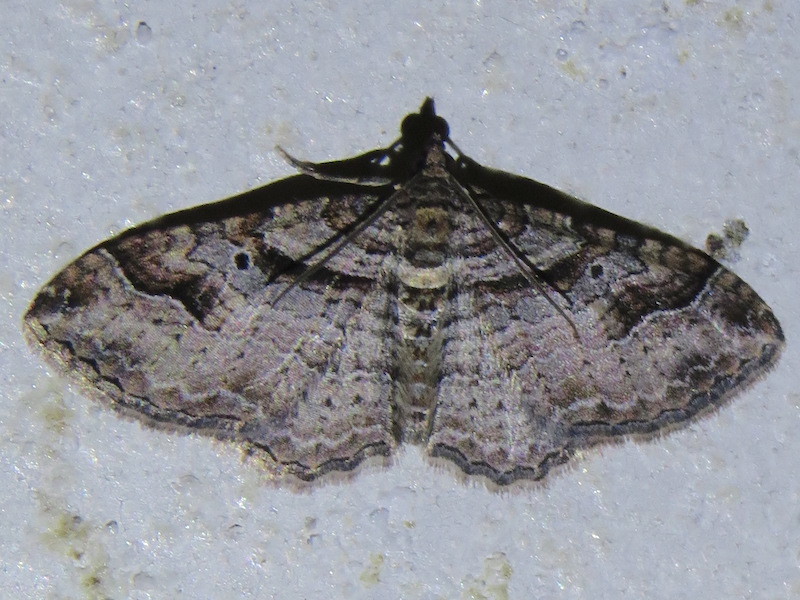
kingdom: Animalia
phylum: Arthropoda
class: Insecta
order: Lepidoptera
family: Geometridae
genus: Costaconvexa
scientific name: Costaconvexa centrostrigaria
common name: Bent-line carpet
